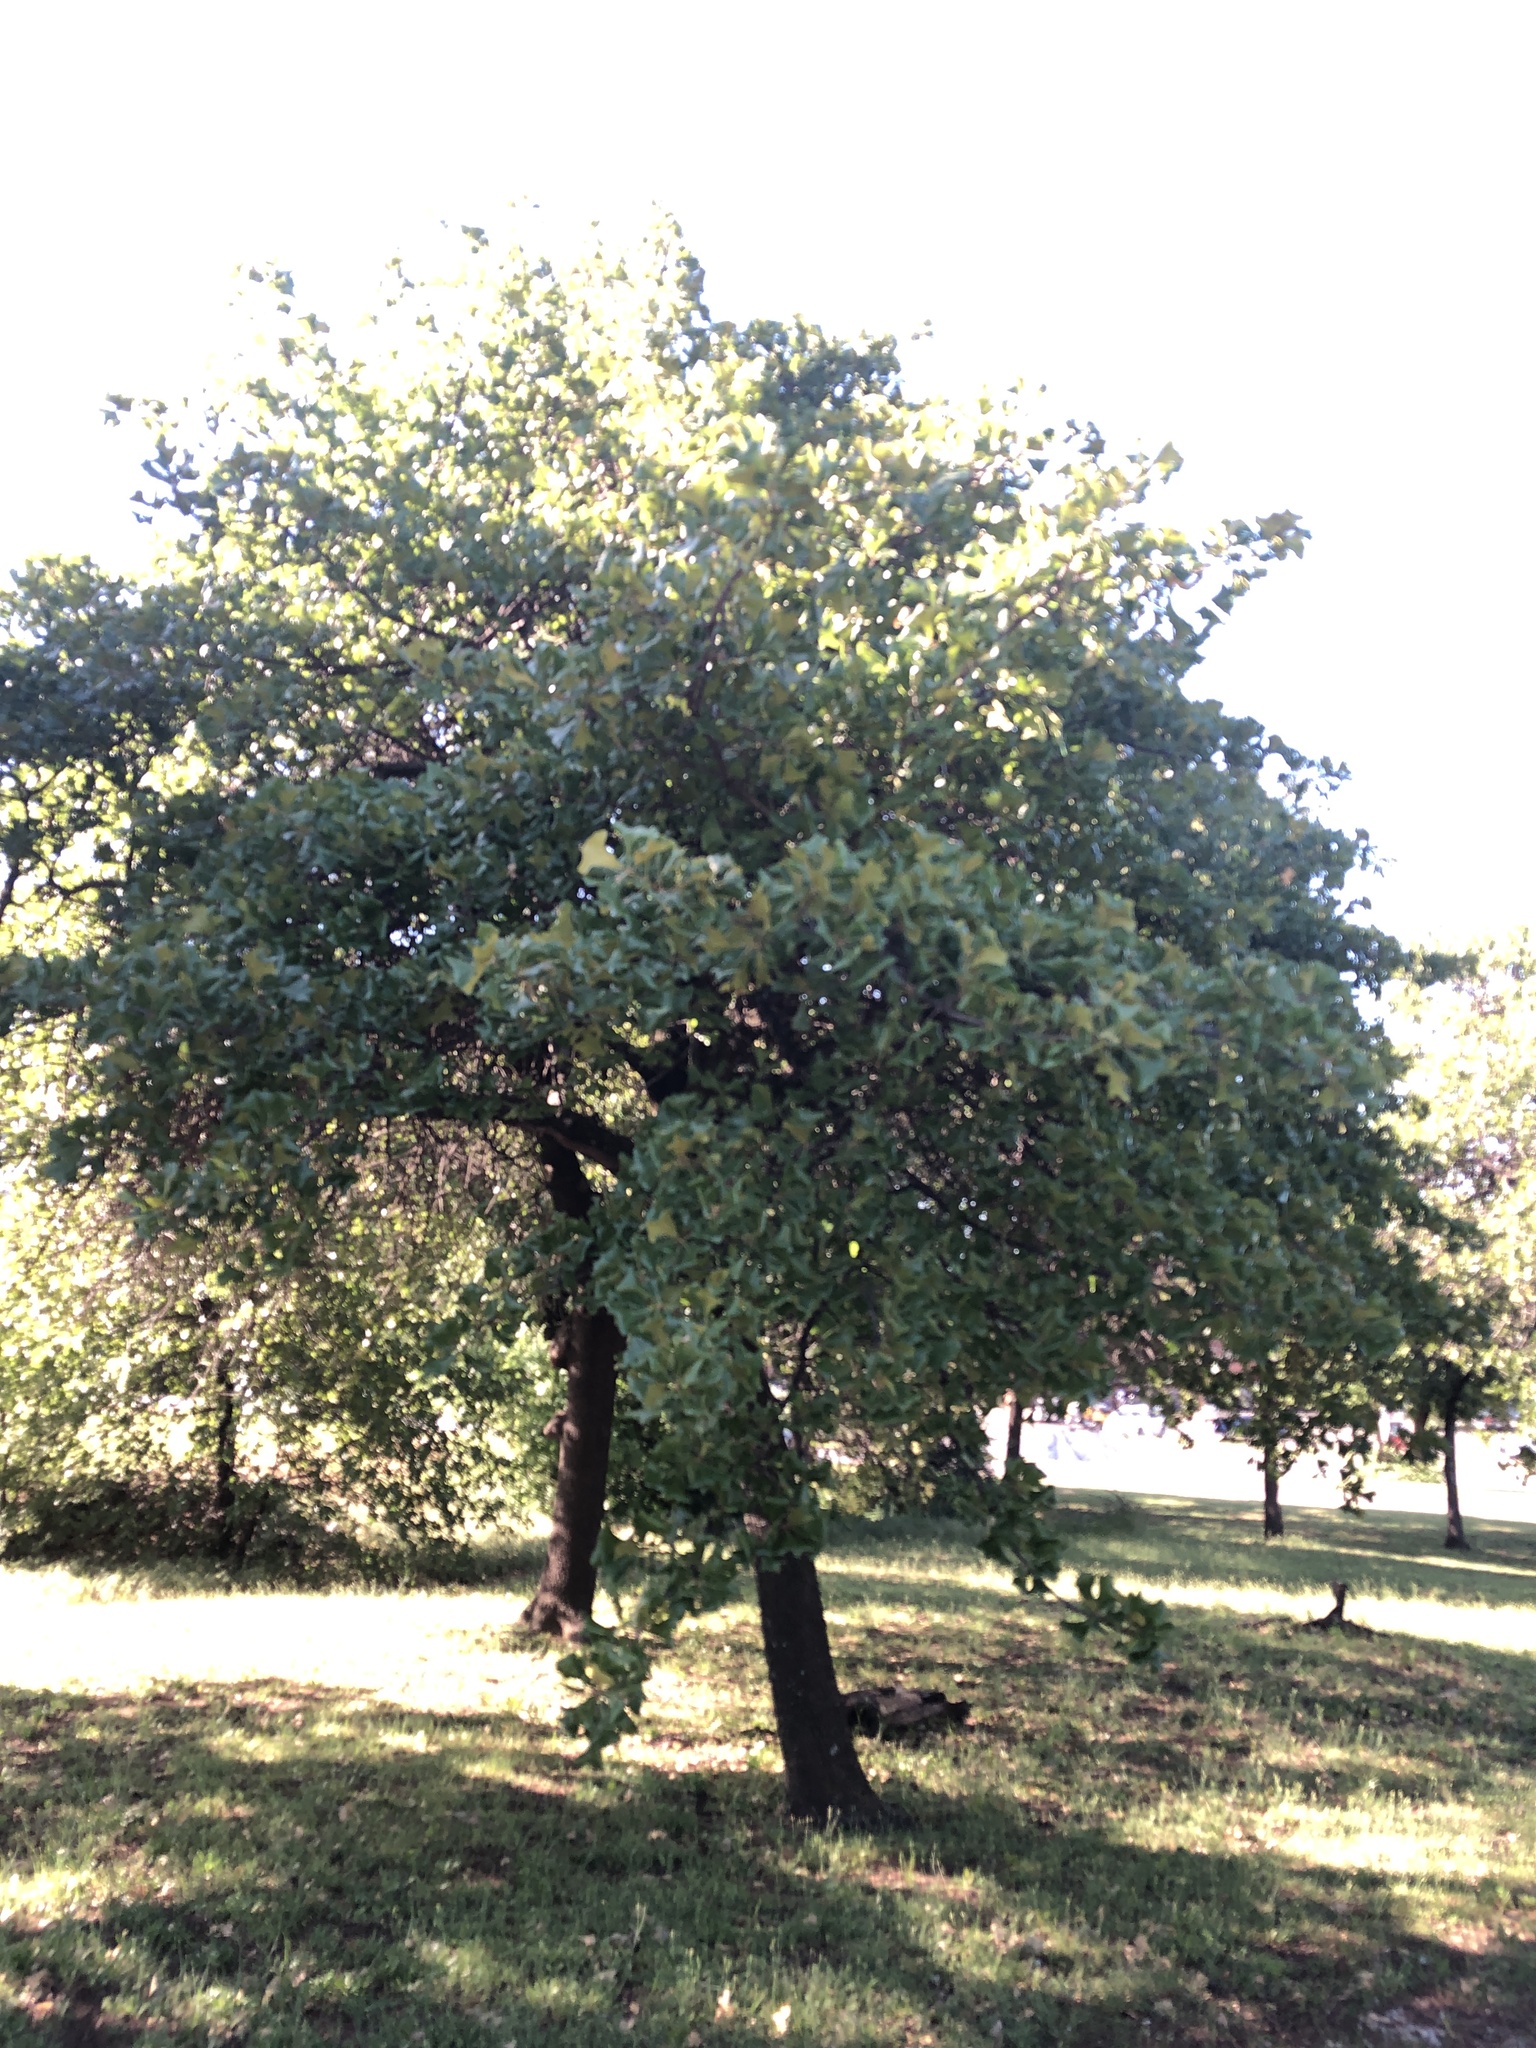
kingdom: Plantae
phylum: Tracheophyta
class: Magnoliopsida
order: Fagales
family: Fagaceae
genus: Quercus
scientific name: Quercus marilandica
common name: Blackjack oak
